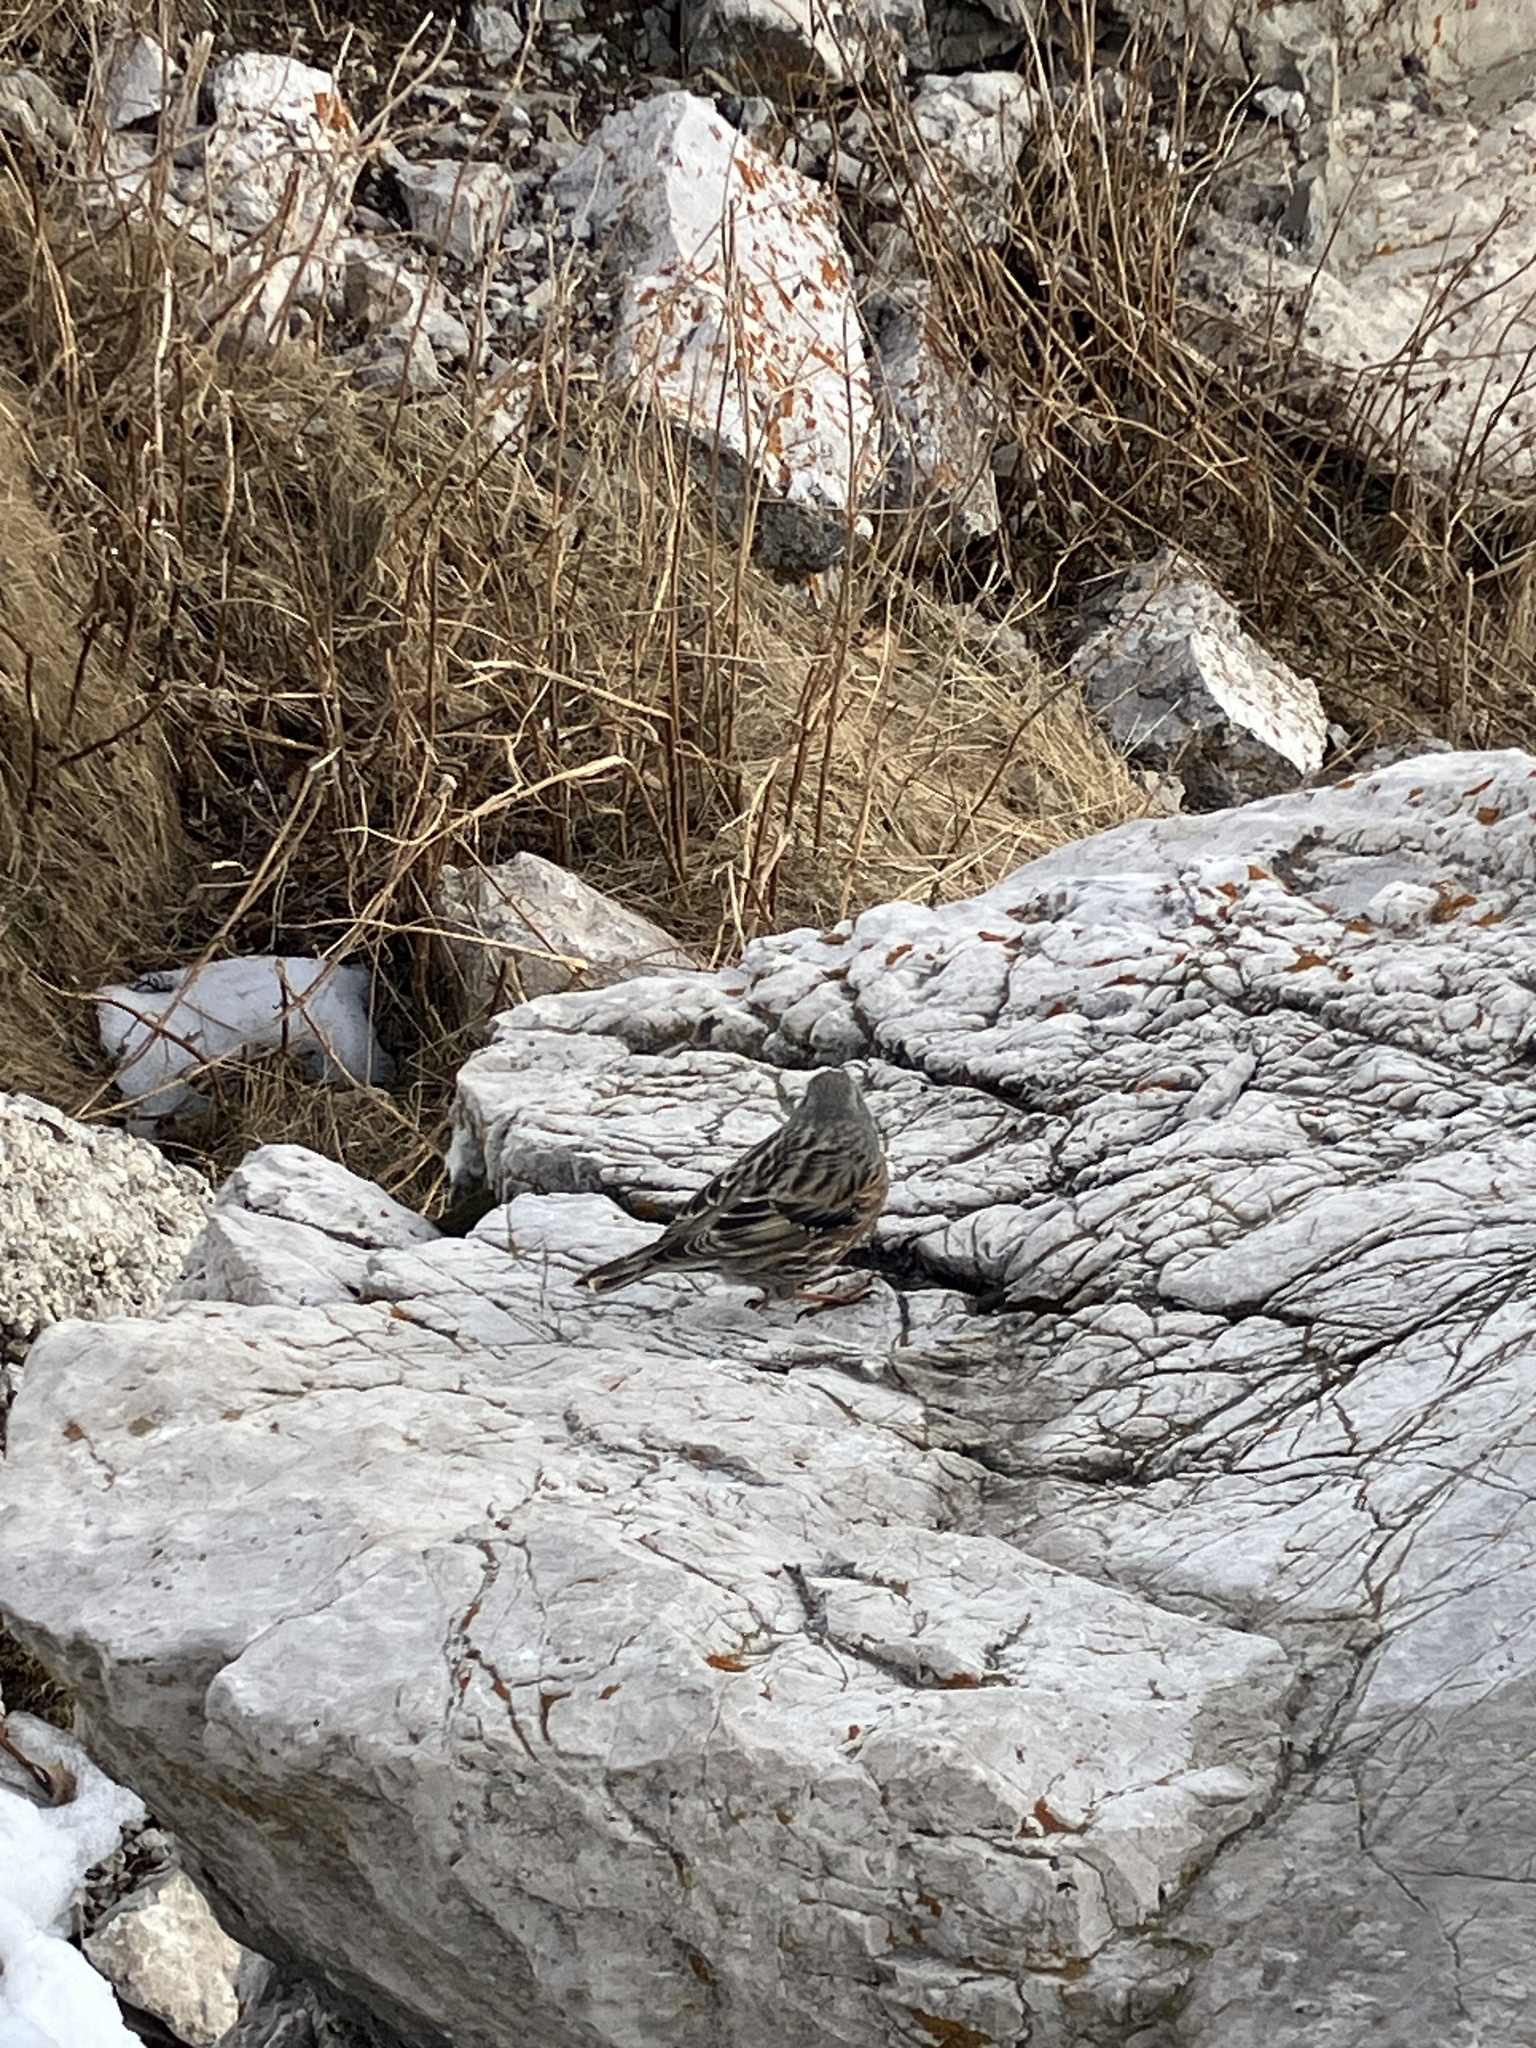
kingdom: Animalia
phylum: Chordata
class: Aves
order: Passeriformes
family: Prunellidae
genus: Prunella
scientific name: Prunella collaris
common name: Alpine accentor
